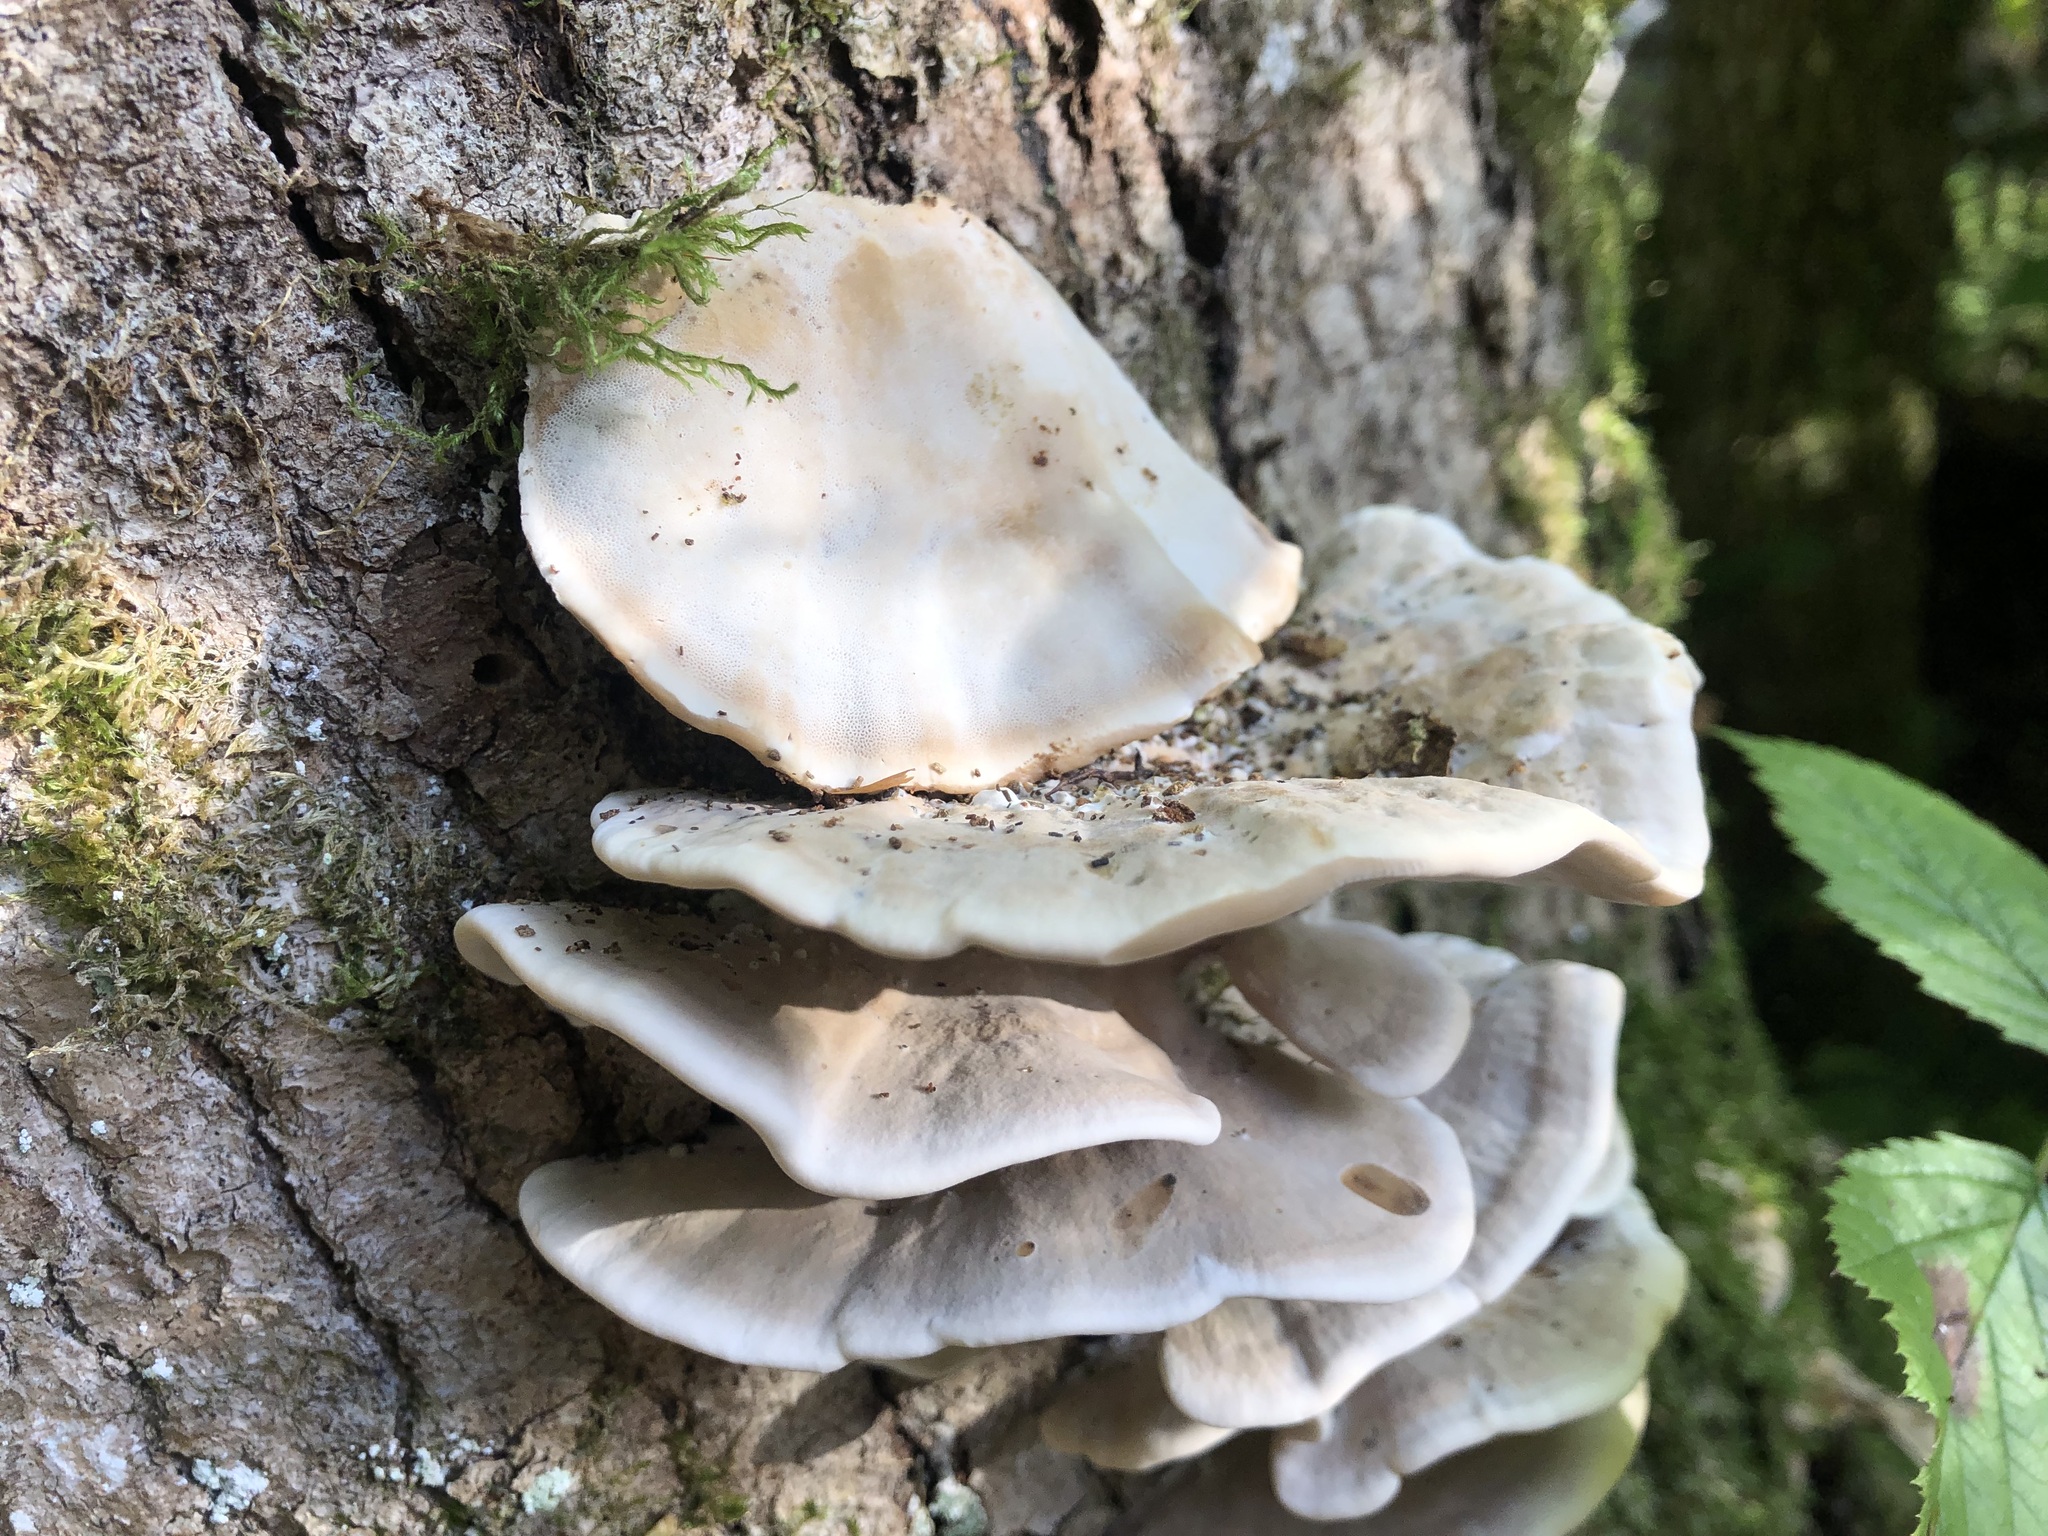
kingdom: Fungi
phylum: Basidiomycota
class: Agaricomycetes
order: Polyporales
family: Phanerochaetaceae
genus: Bjerkandera
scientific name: Bjerkandera fumosa
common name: Big smoky bracket
